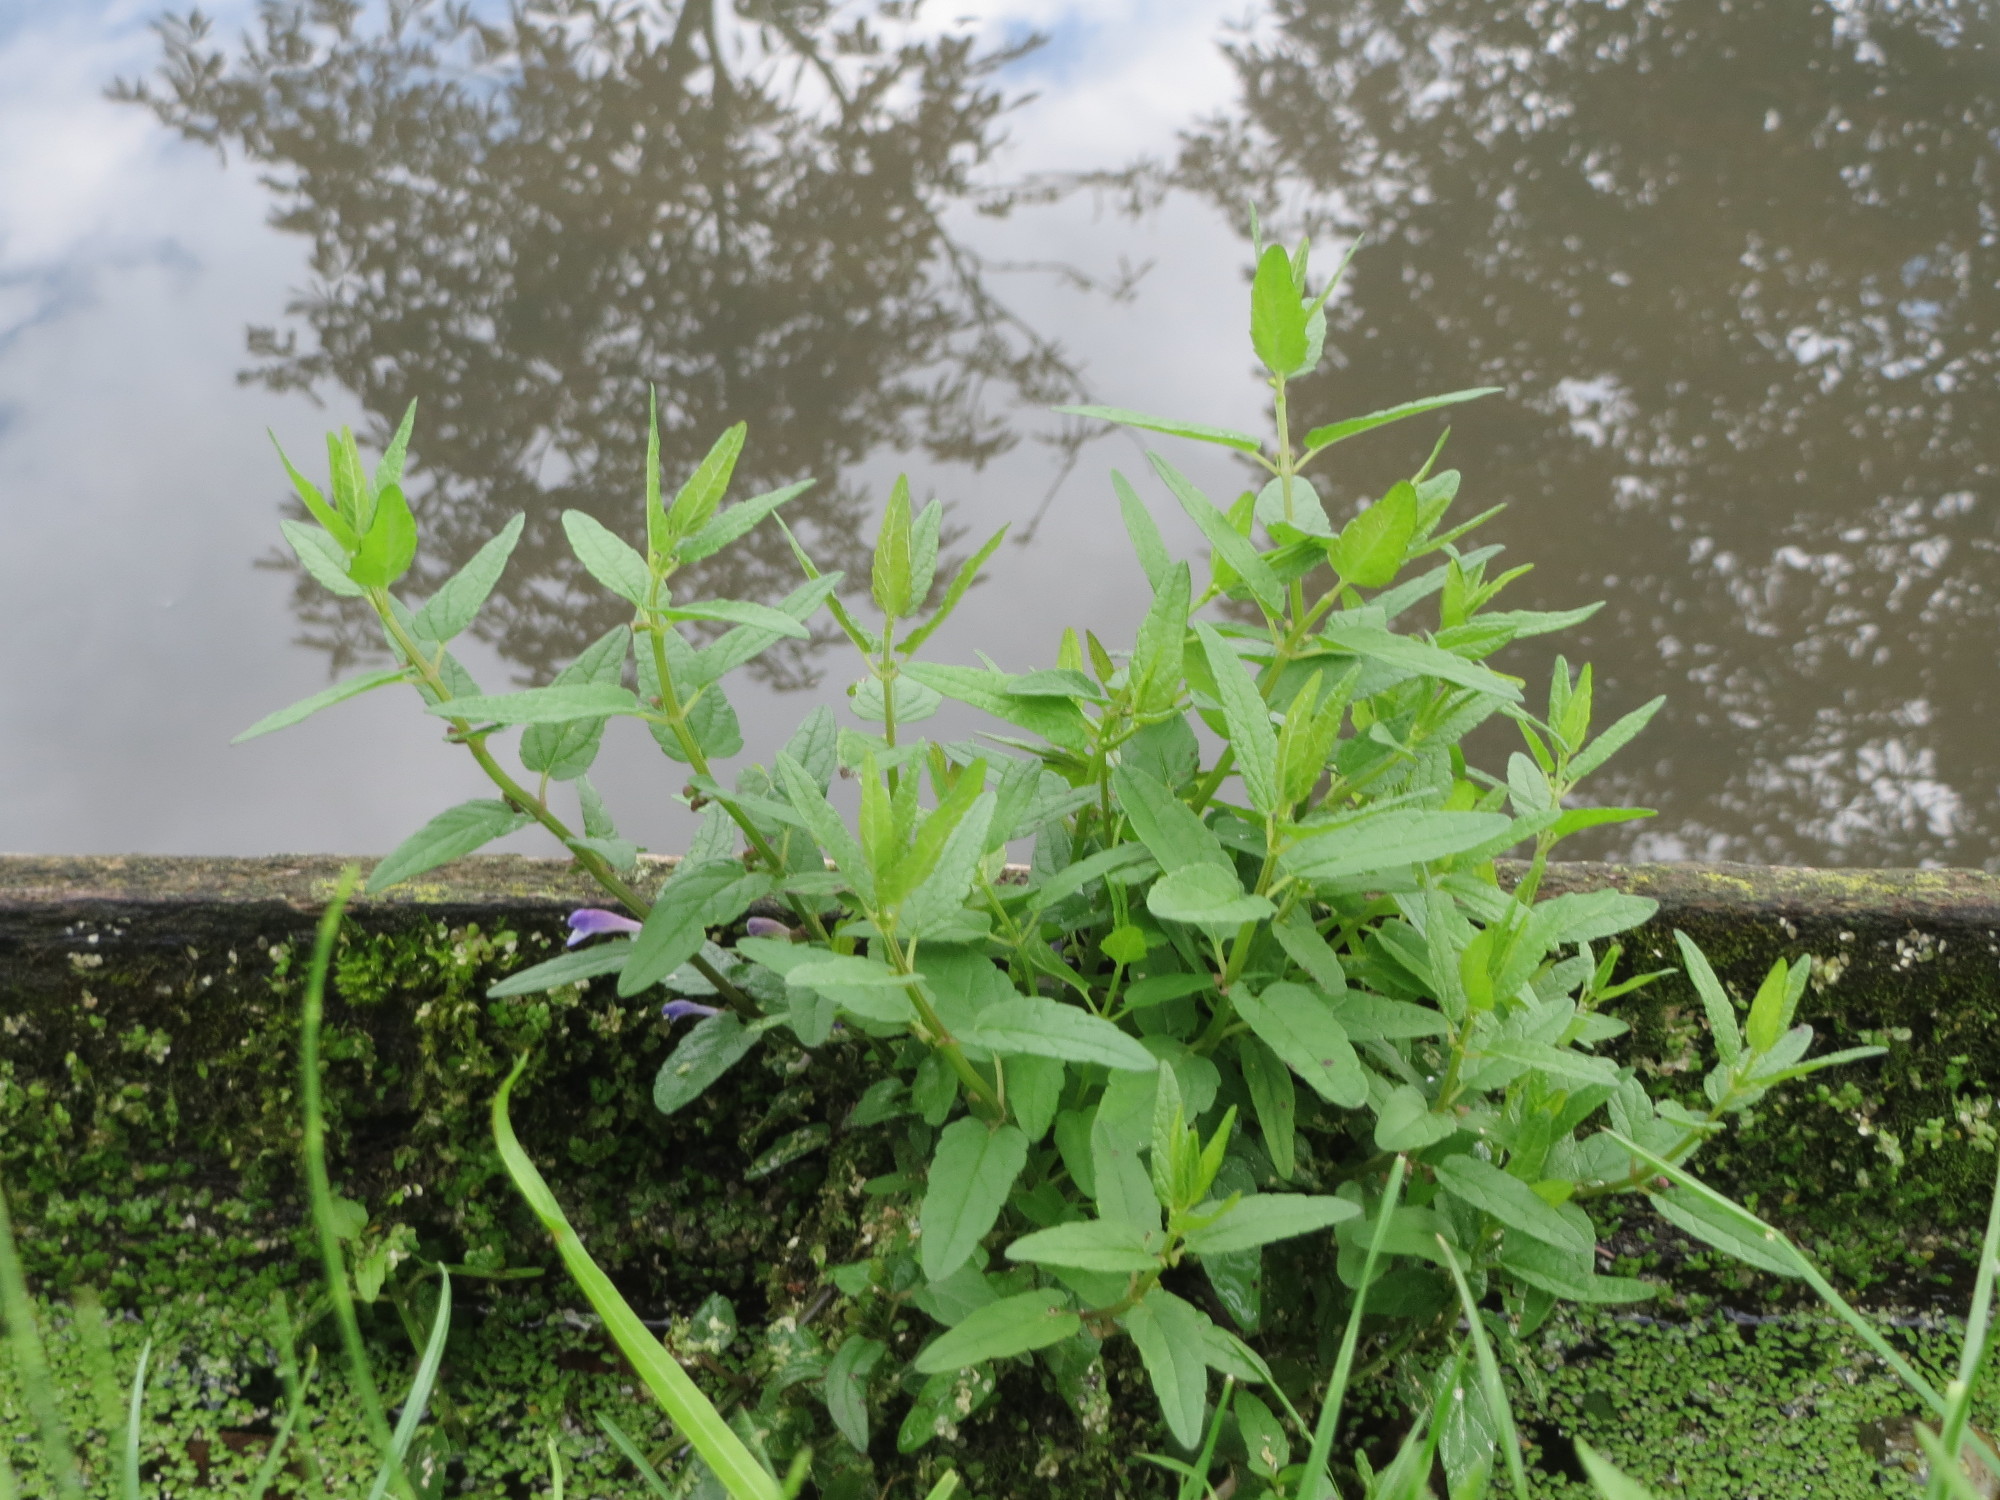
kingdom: Plantae
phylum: Tracheophyta
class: Magnoliopsida
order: Lamiales
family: Lamiaceae
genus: Scutellaria
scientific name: Scutellaria galericulata
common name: Skullcap
